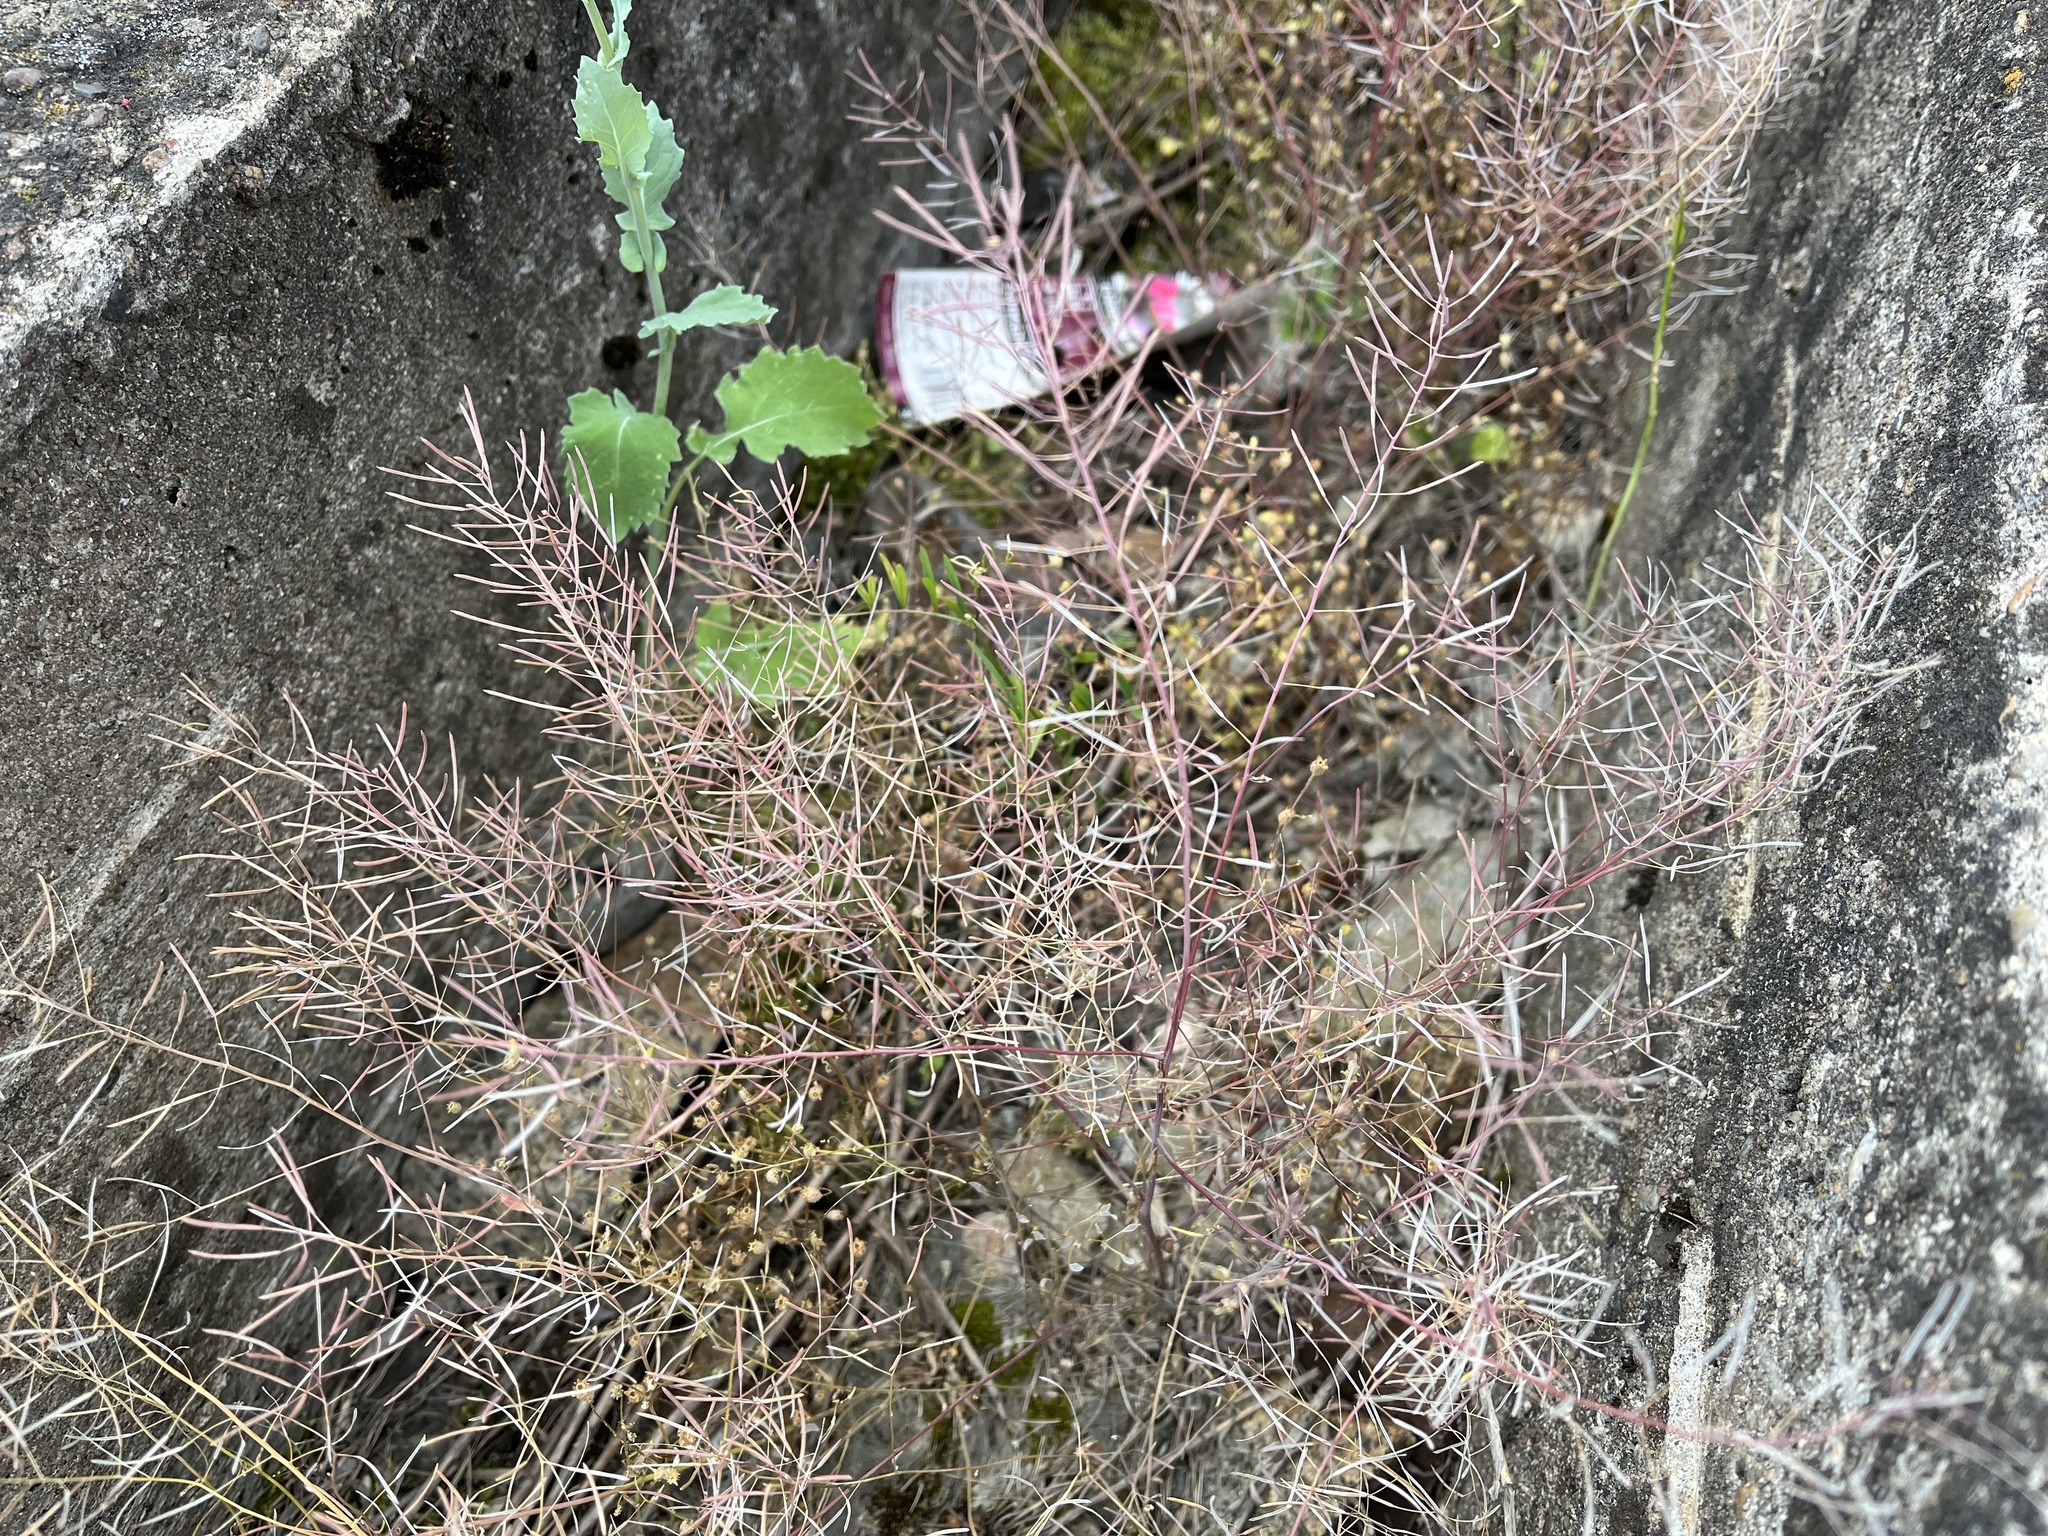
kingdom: Plantae
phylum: Tracheophyta
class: Magnoliopsida
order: Brassicales
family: Brassicaceae
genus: Arabidopsis
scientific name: Arabidopsis thaliana
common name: Thale cress
